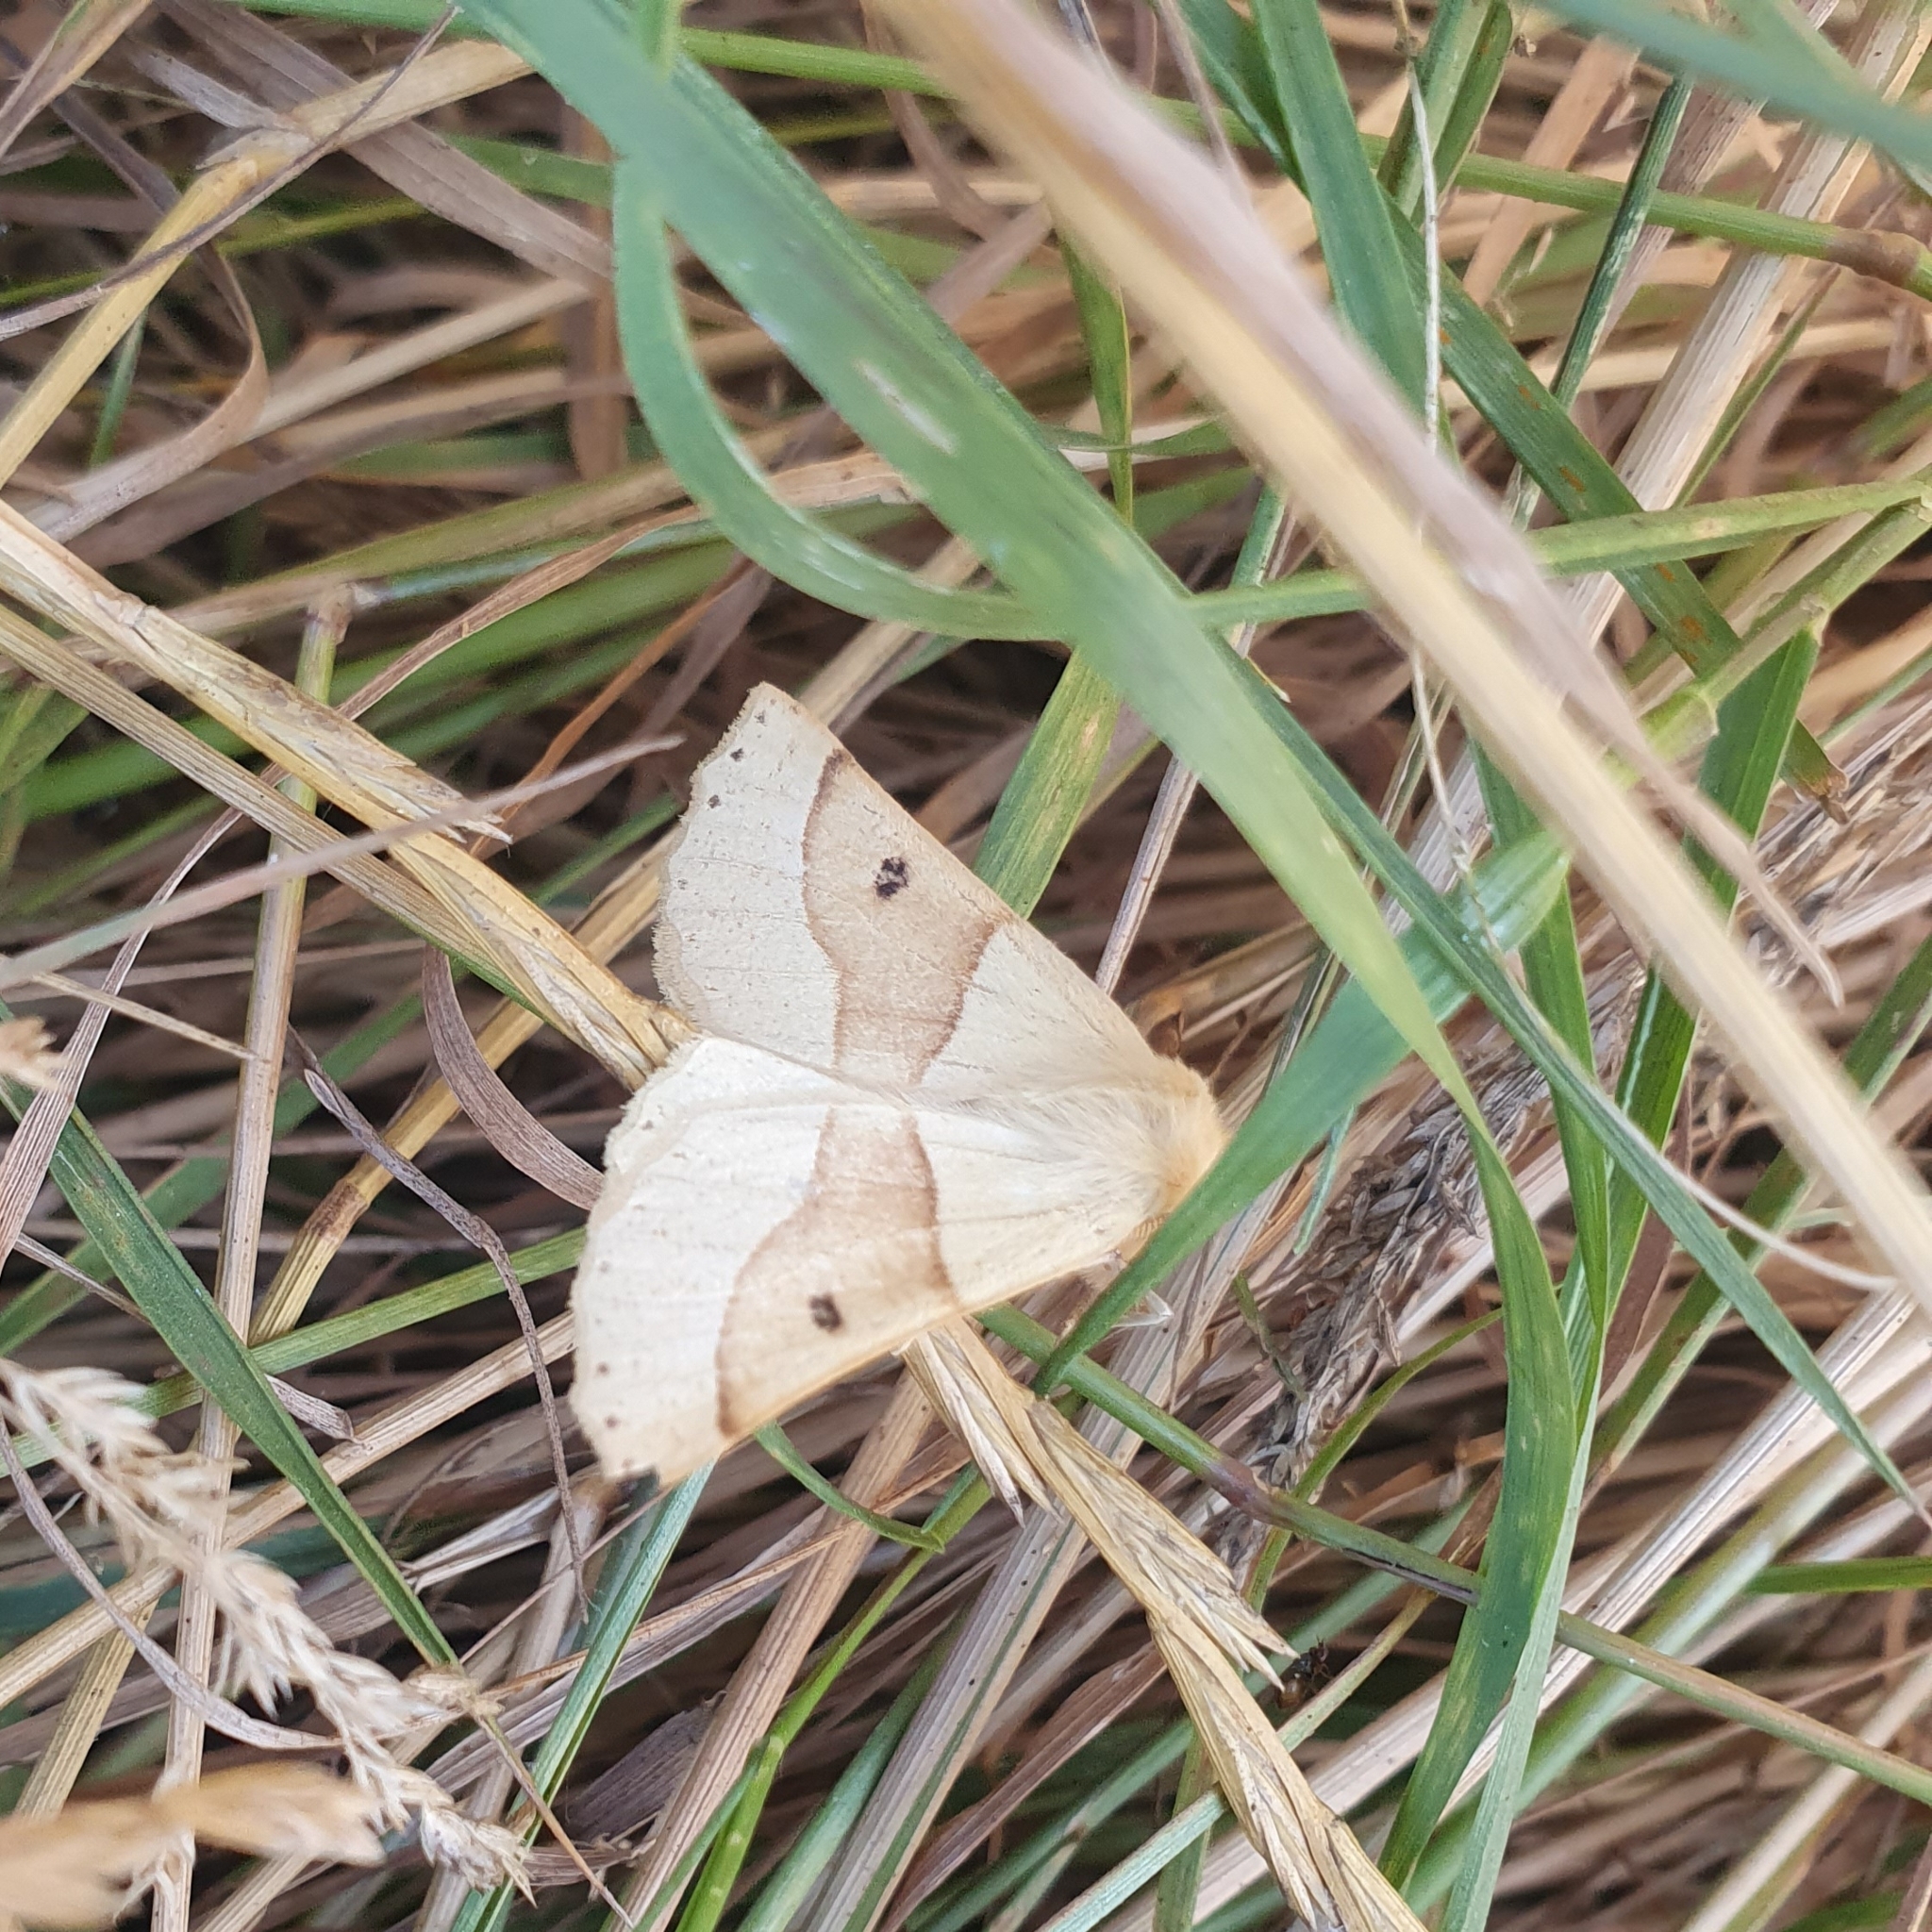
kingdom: Animalia
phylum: Arthropoda
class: Insecta
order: Lepidoptera
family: Geometridae
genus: Crocallis
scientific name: Crocallis elinguaria
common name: Scalloped oak
